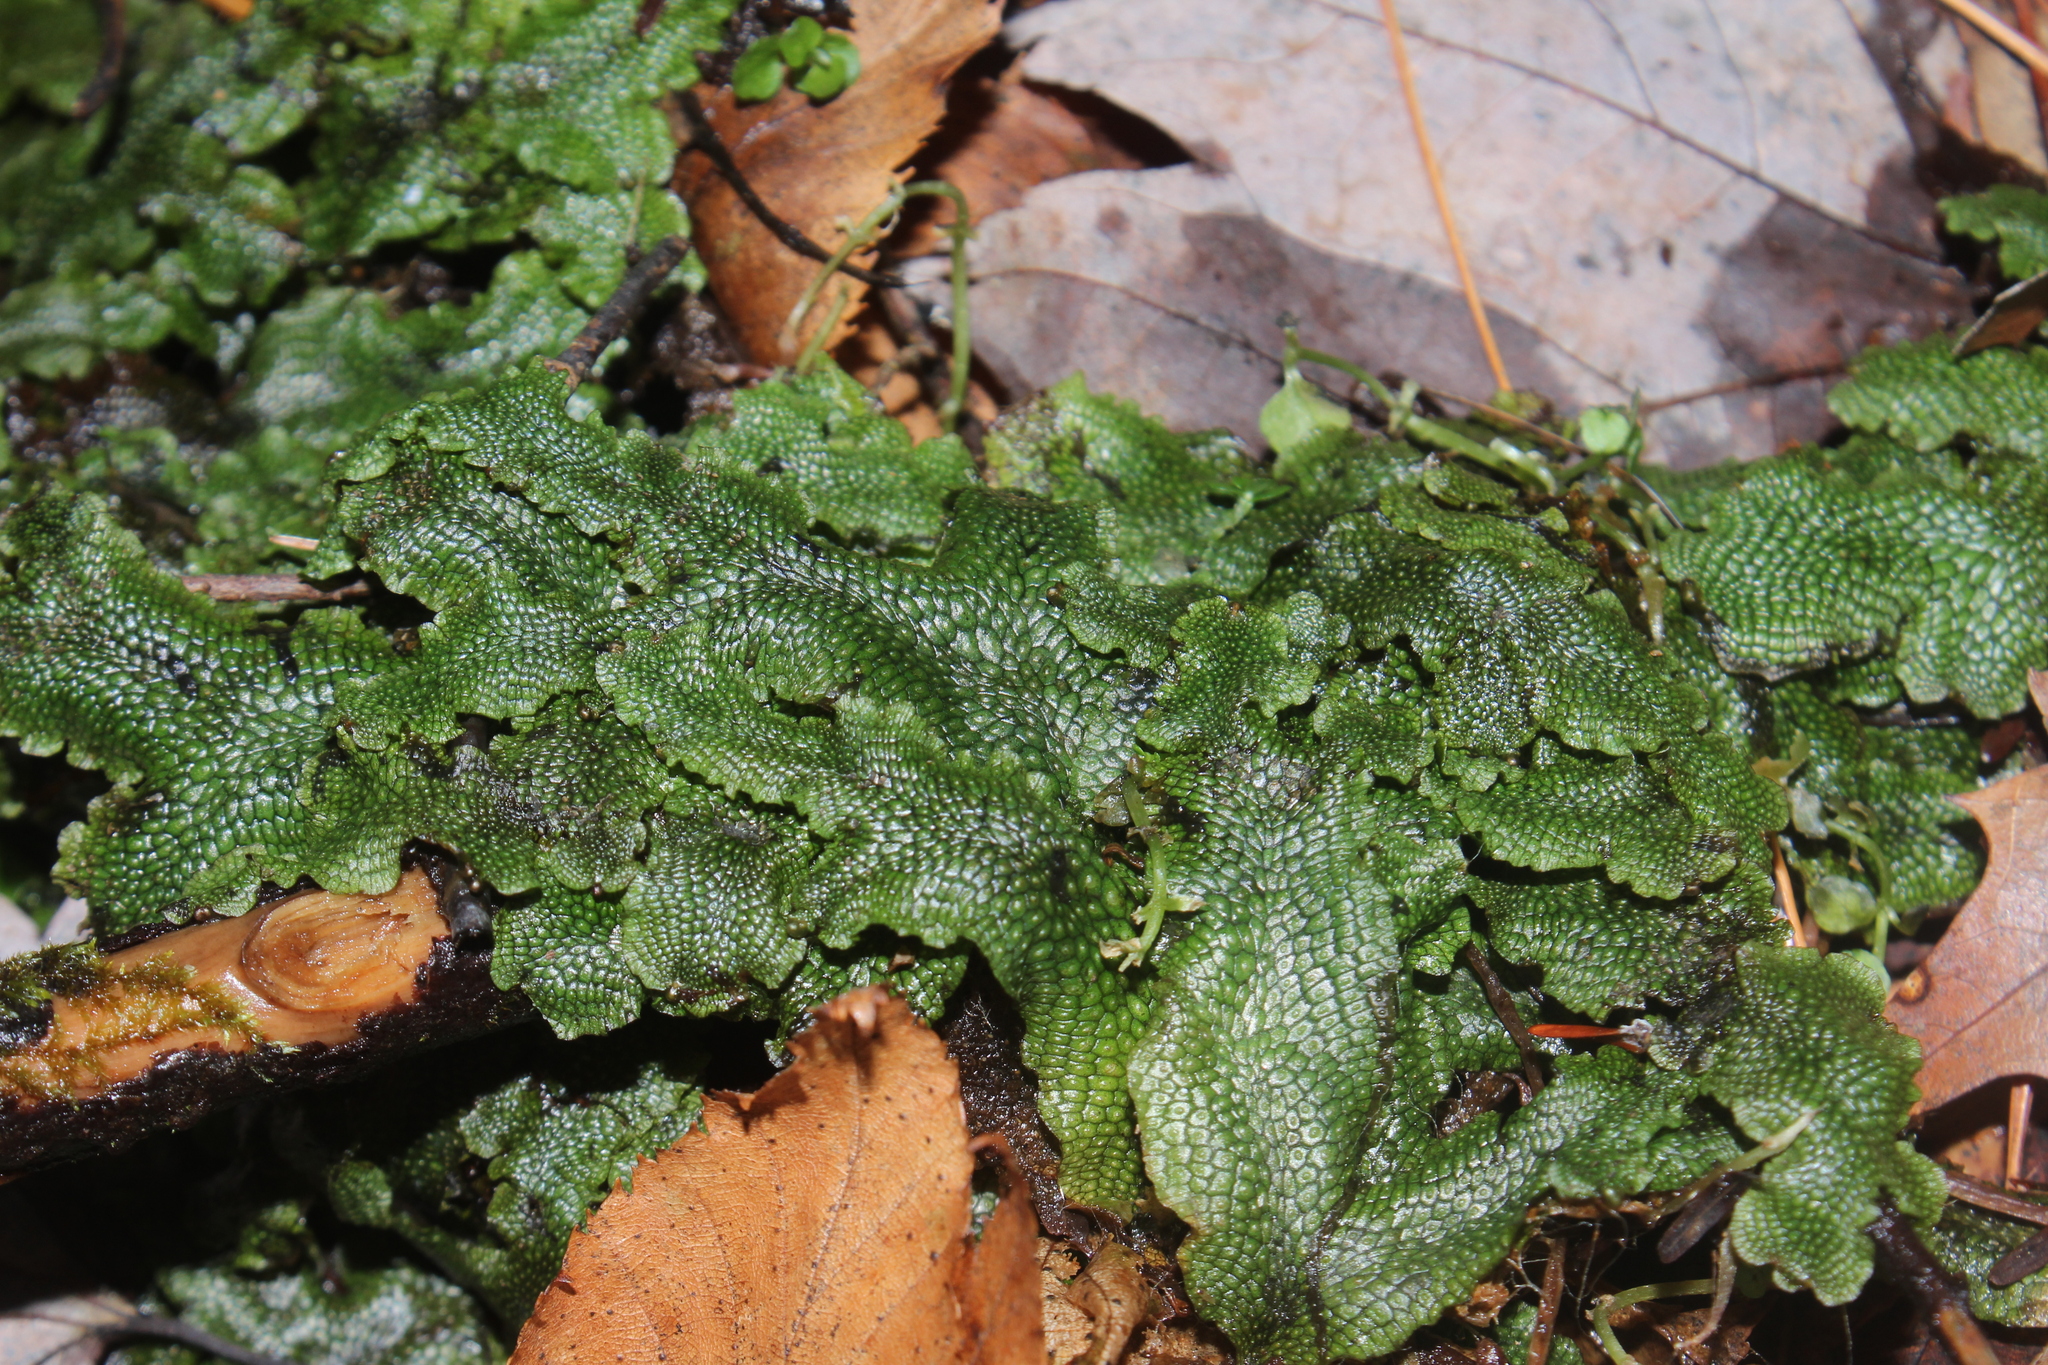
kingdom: Plantae
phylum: Marchantiophyta
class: Marchantiopsida
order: Marchantiales
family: Conocephalaceae
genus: Conocephalum
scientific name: Conocephalum salebrosum
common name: Cat-tongue liverwort
